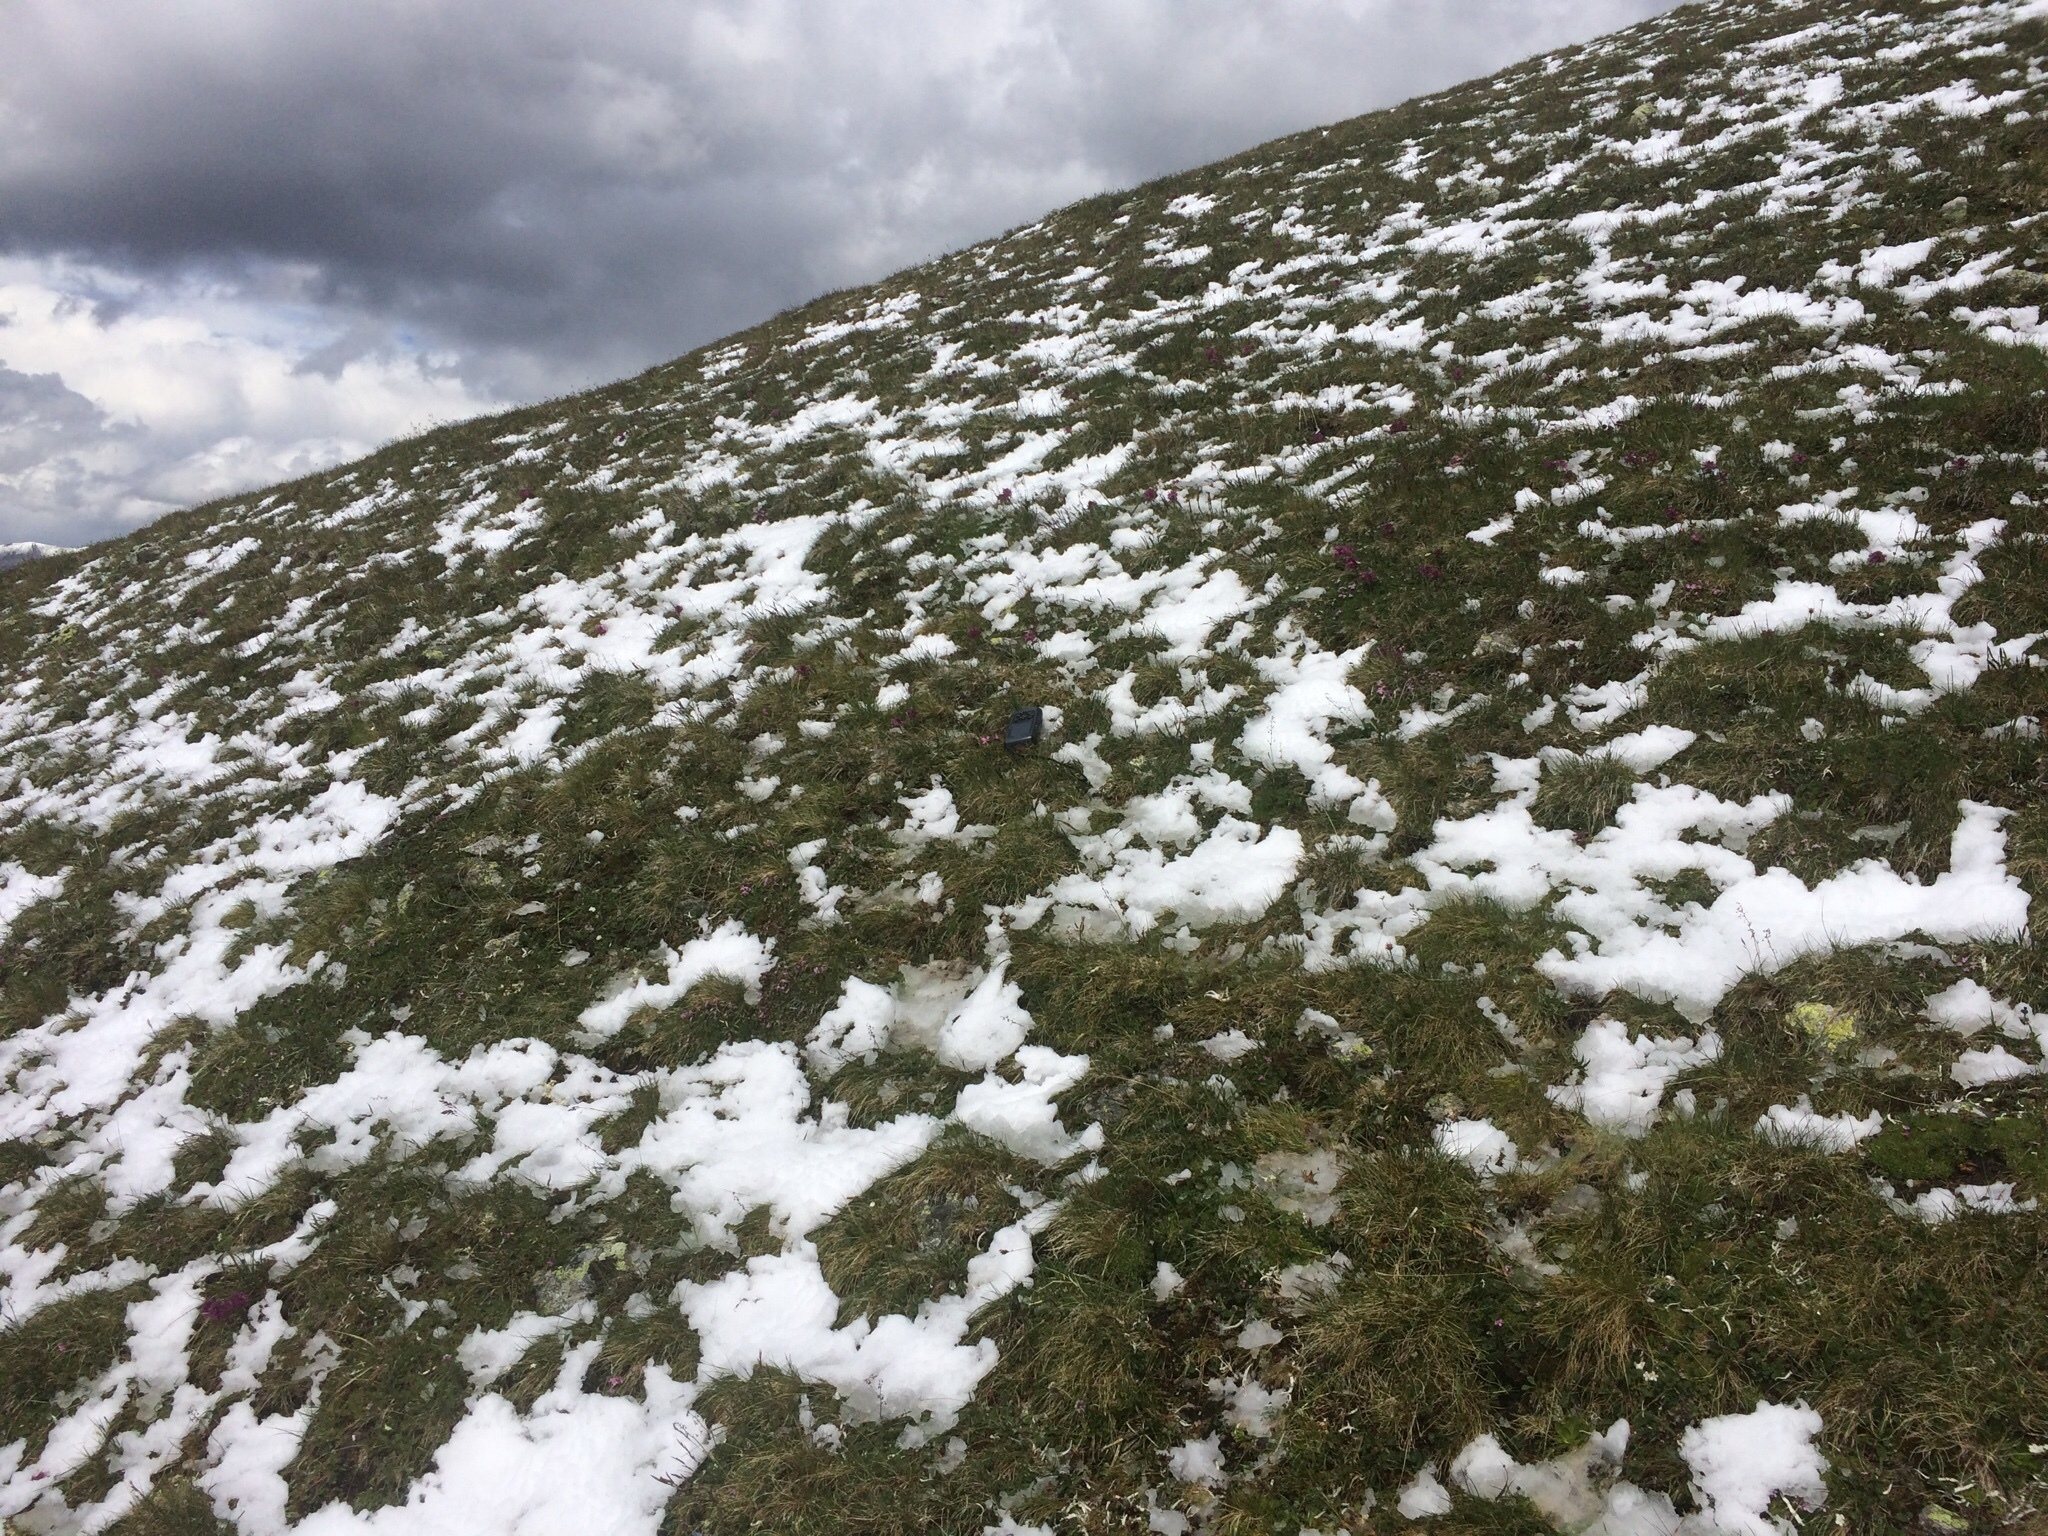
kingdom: Plantae
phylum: Tracheophyta
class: Magnoliopsida
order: Caryophyllales
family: Caryophyllaceae
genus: Dianthus
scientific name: Dianthus glacialis
